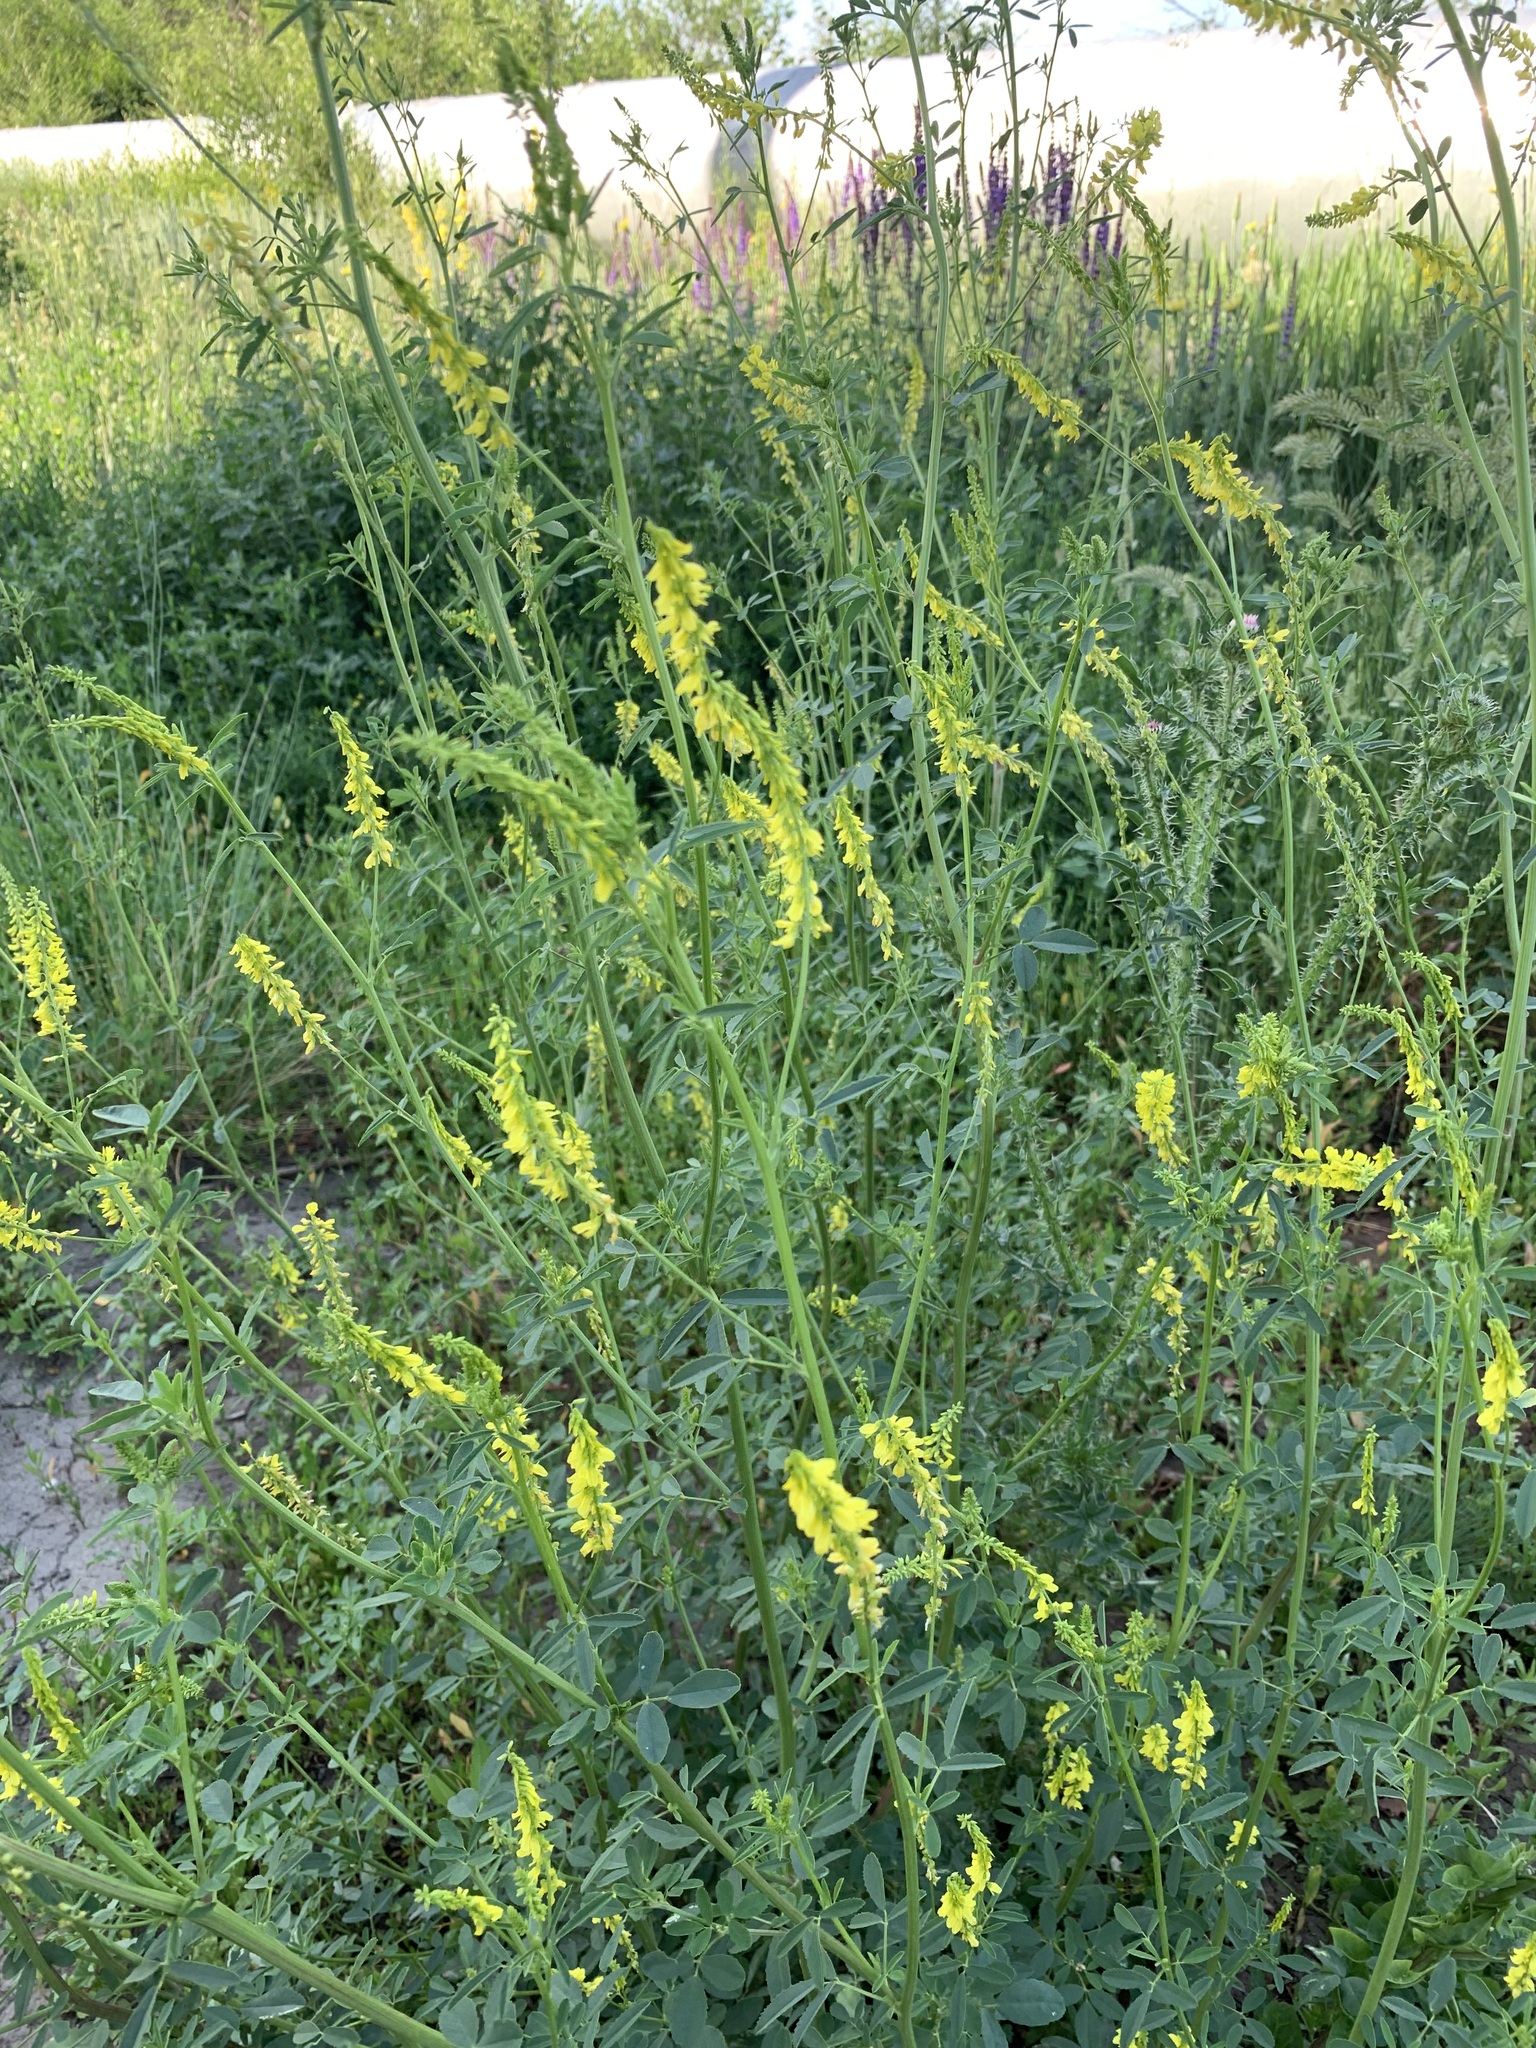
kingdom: Plantae
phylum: Tracheophyta
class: Magnoliopsida
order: Fabales
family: Fabaceae
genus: Melilotus
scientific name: Melilotus officinalis
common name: Sweetclover
